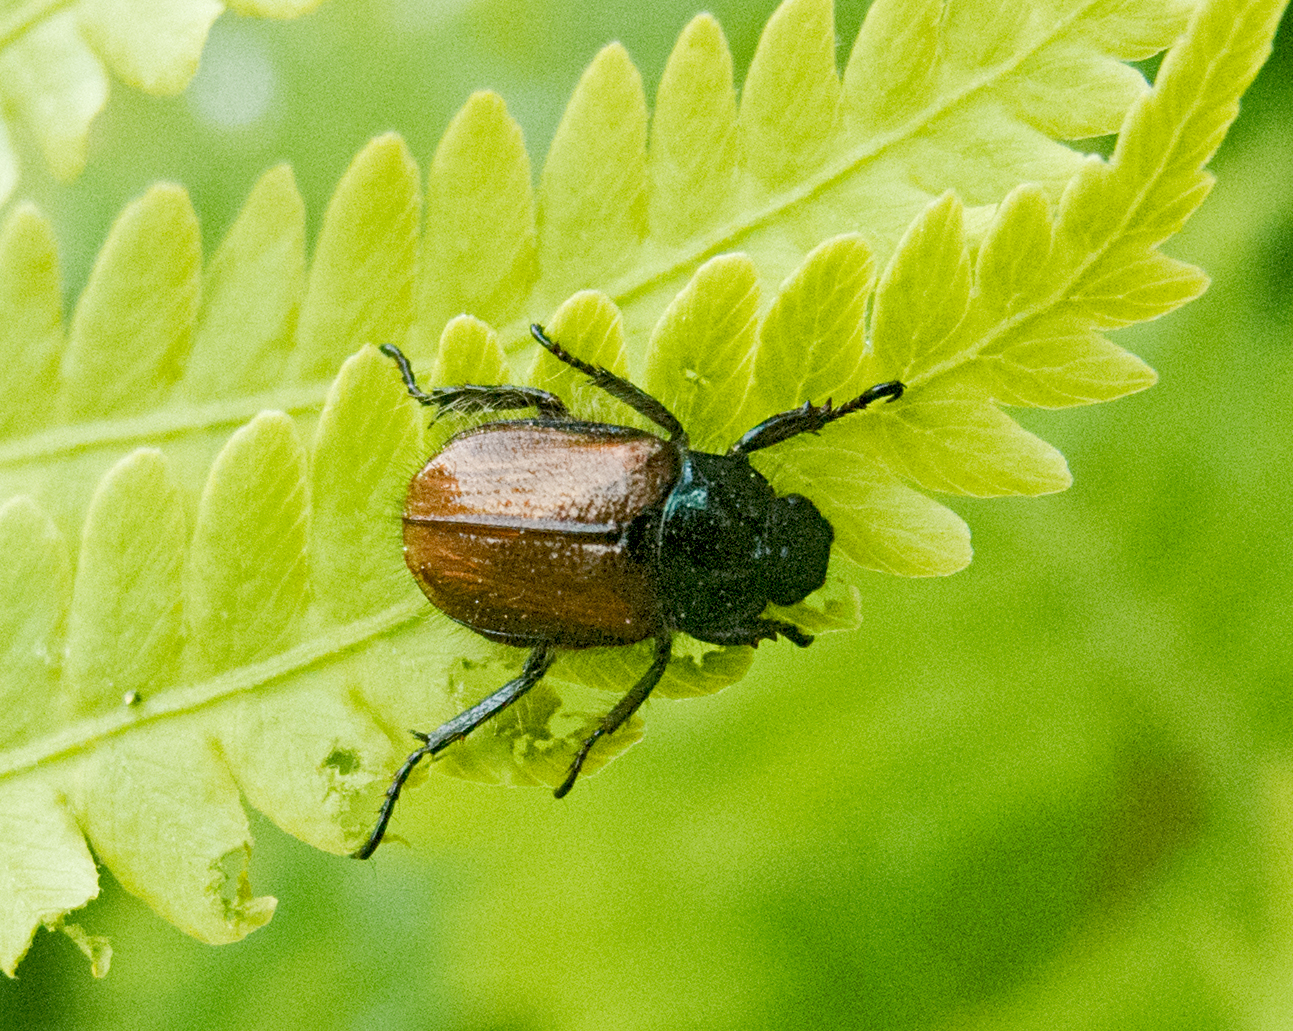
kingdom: Animalia
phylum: Arthropoda
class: Insecta
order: Coleoptera
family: Scarabaeidae
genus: Phyllopertha
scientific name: Phyllopertha horticola
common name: Garden chafer
